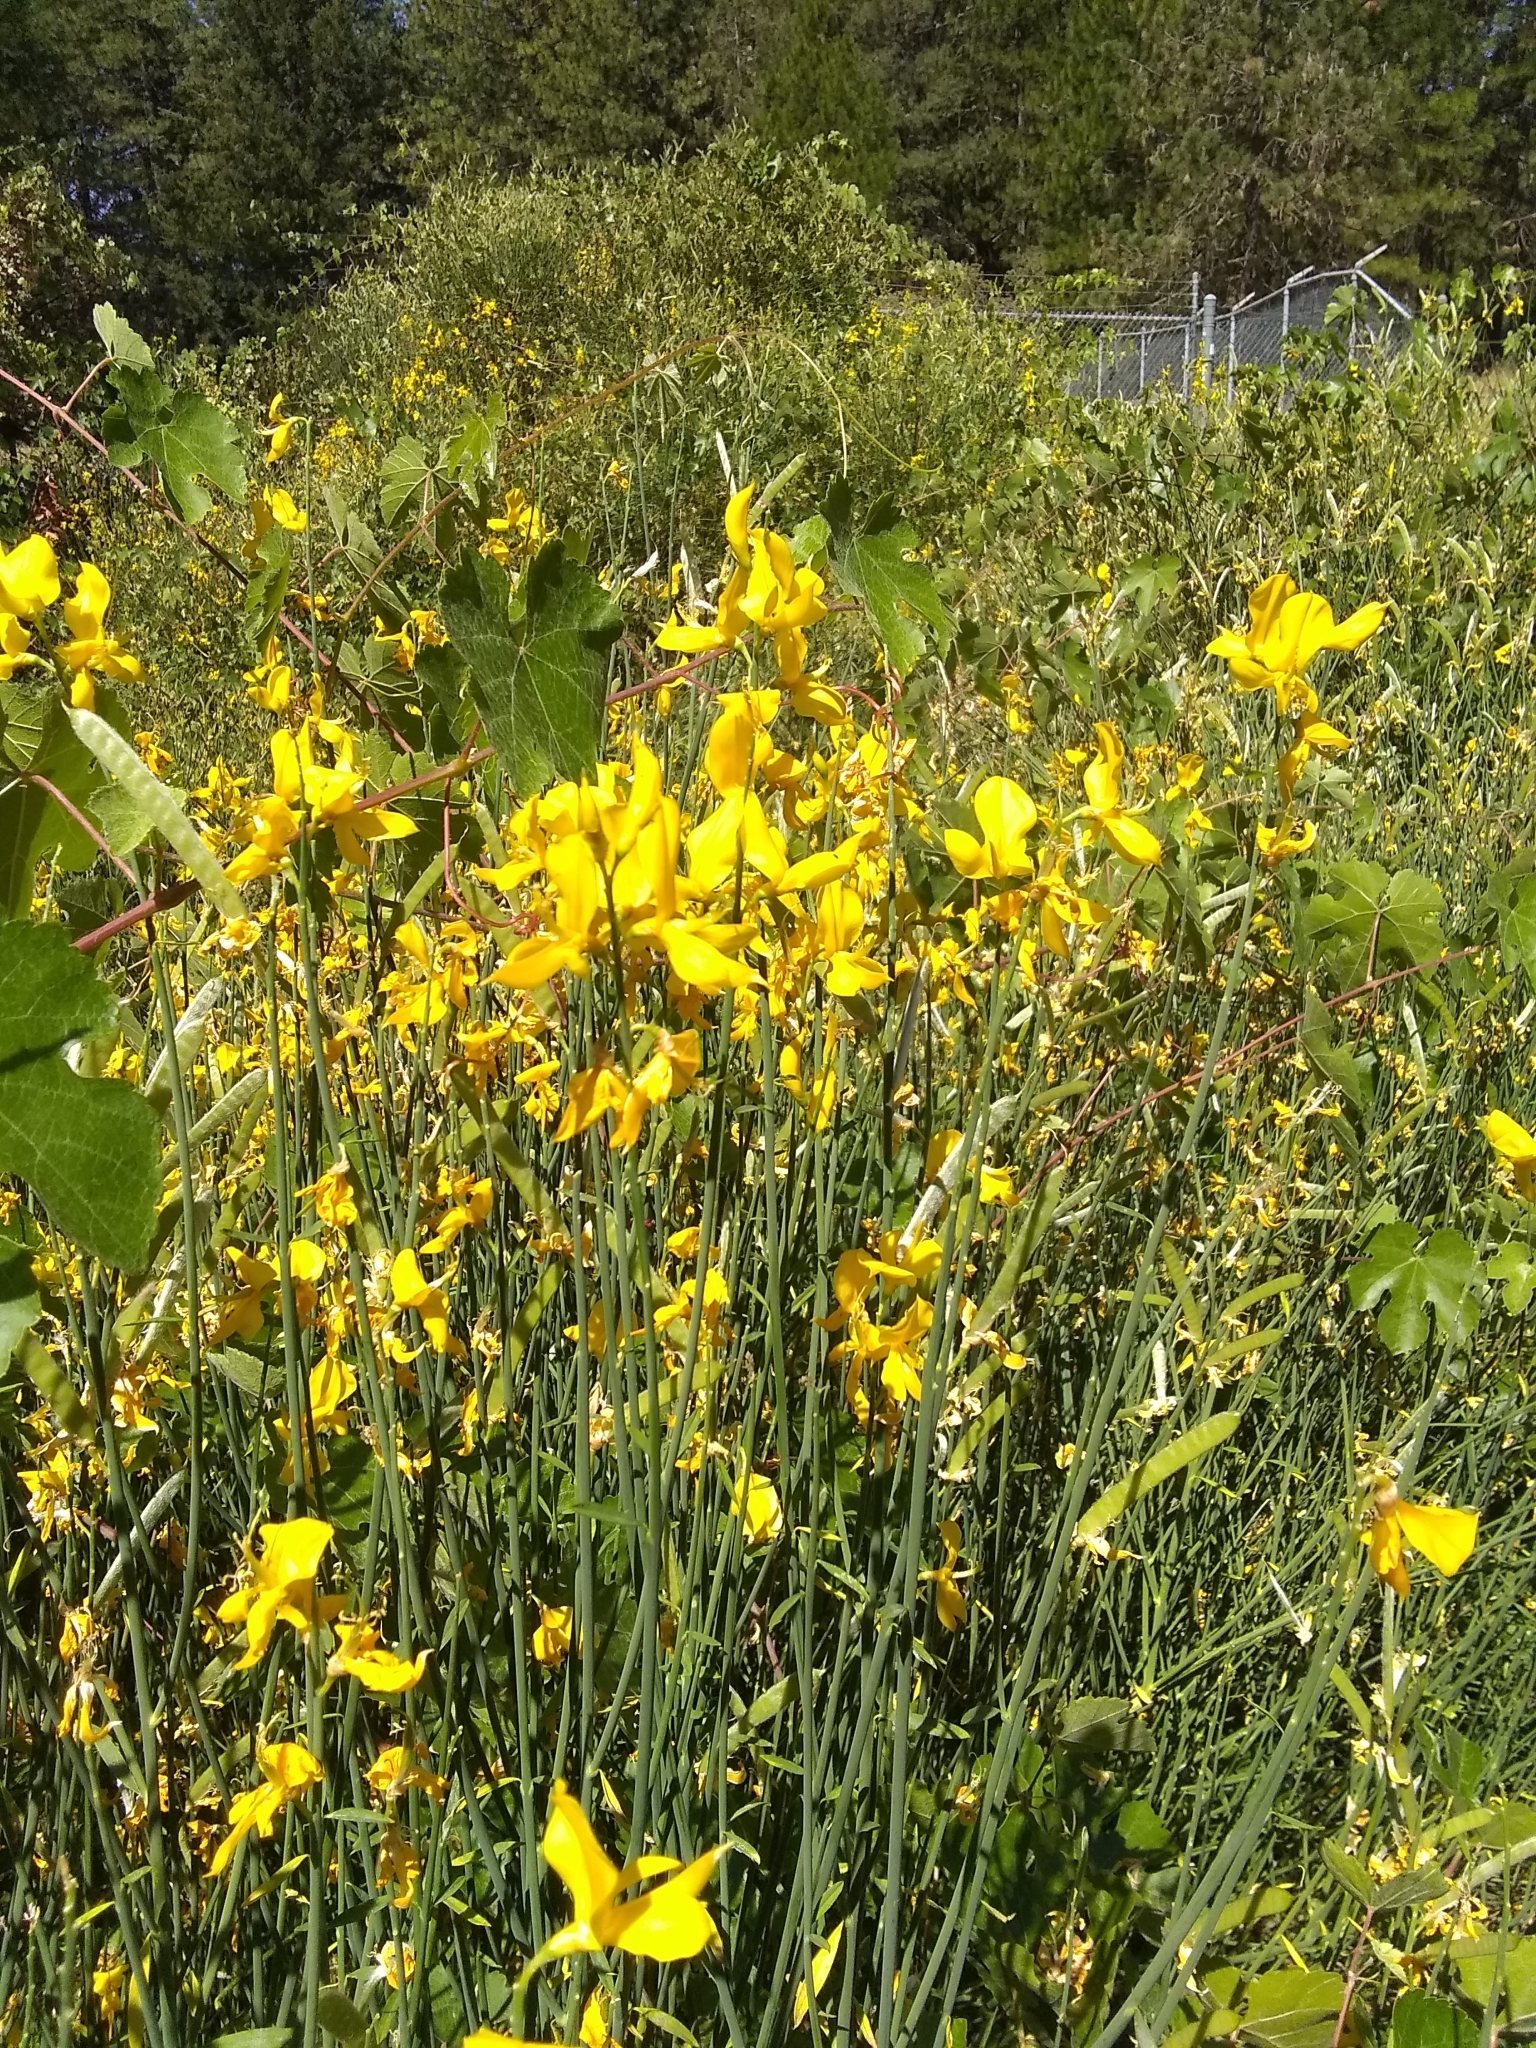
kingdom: Plantae
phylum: Tracheophyta
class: Magnoliopsida
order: Fabales
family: Fabaceae
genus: Spartium
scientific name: Spartium junceum
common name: Spanish broom
